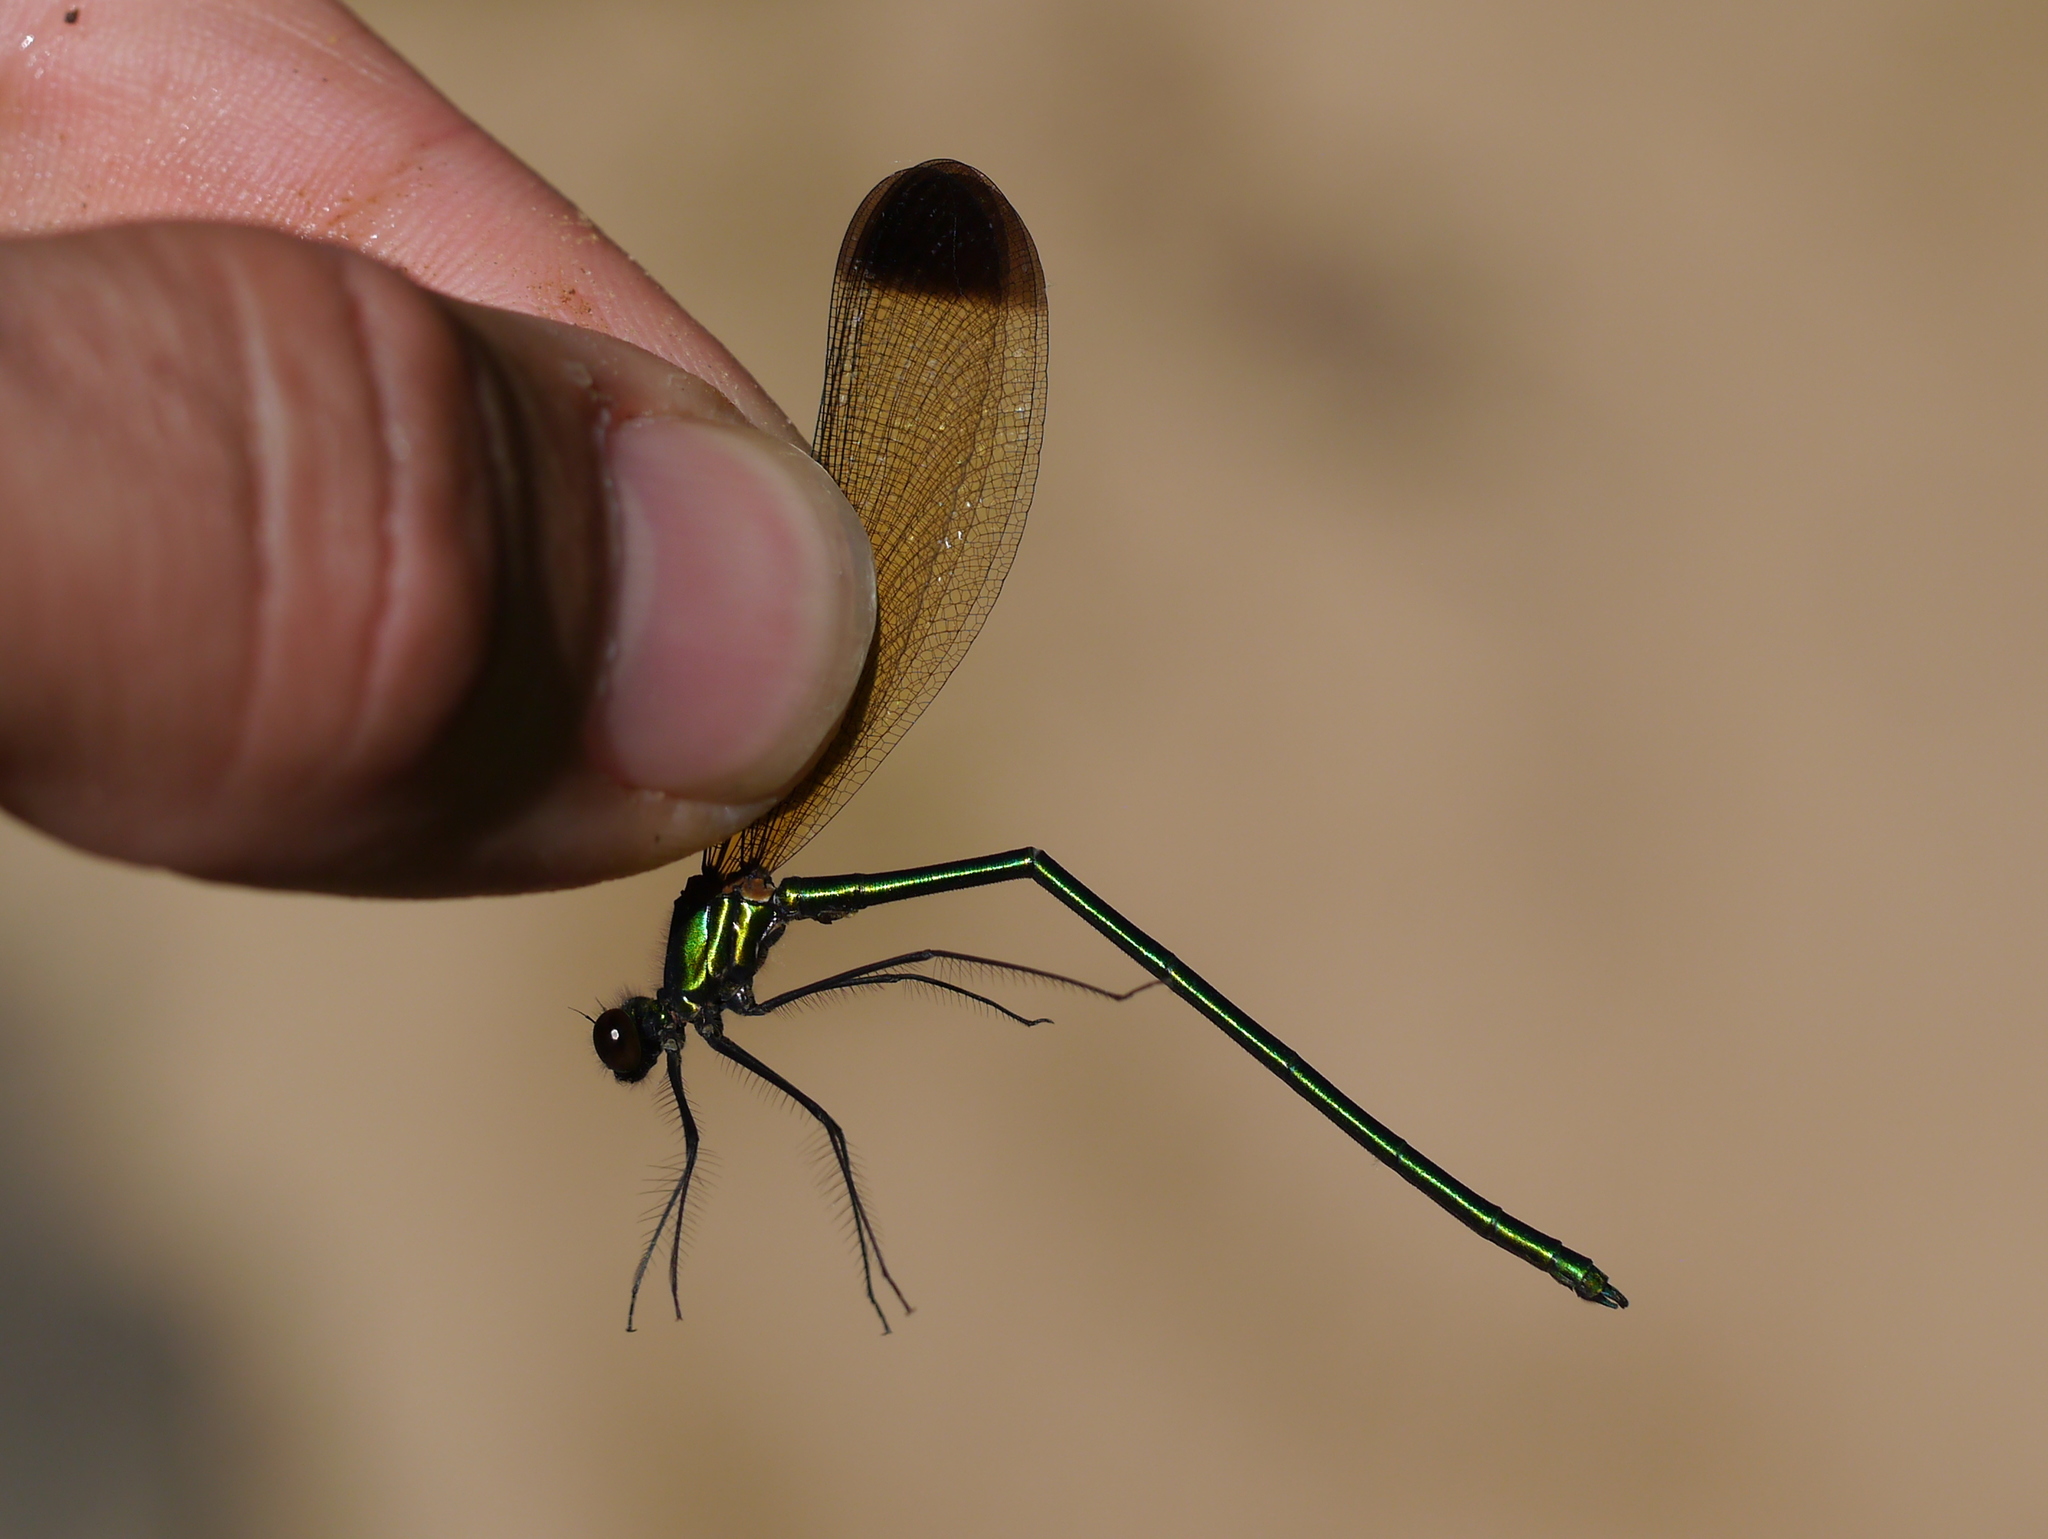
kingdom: Animalia
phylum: Arthropoda
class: Insecta
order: Odonata
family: Calopterygidae
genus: Calopteryx
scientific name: Calopteryx dimidiata
